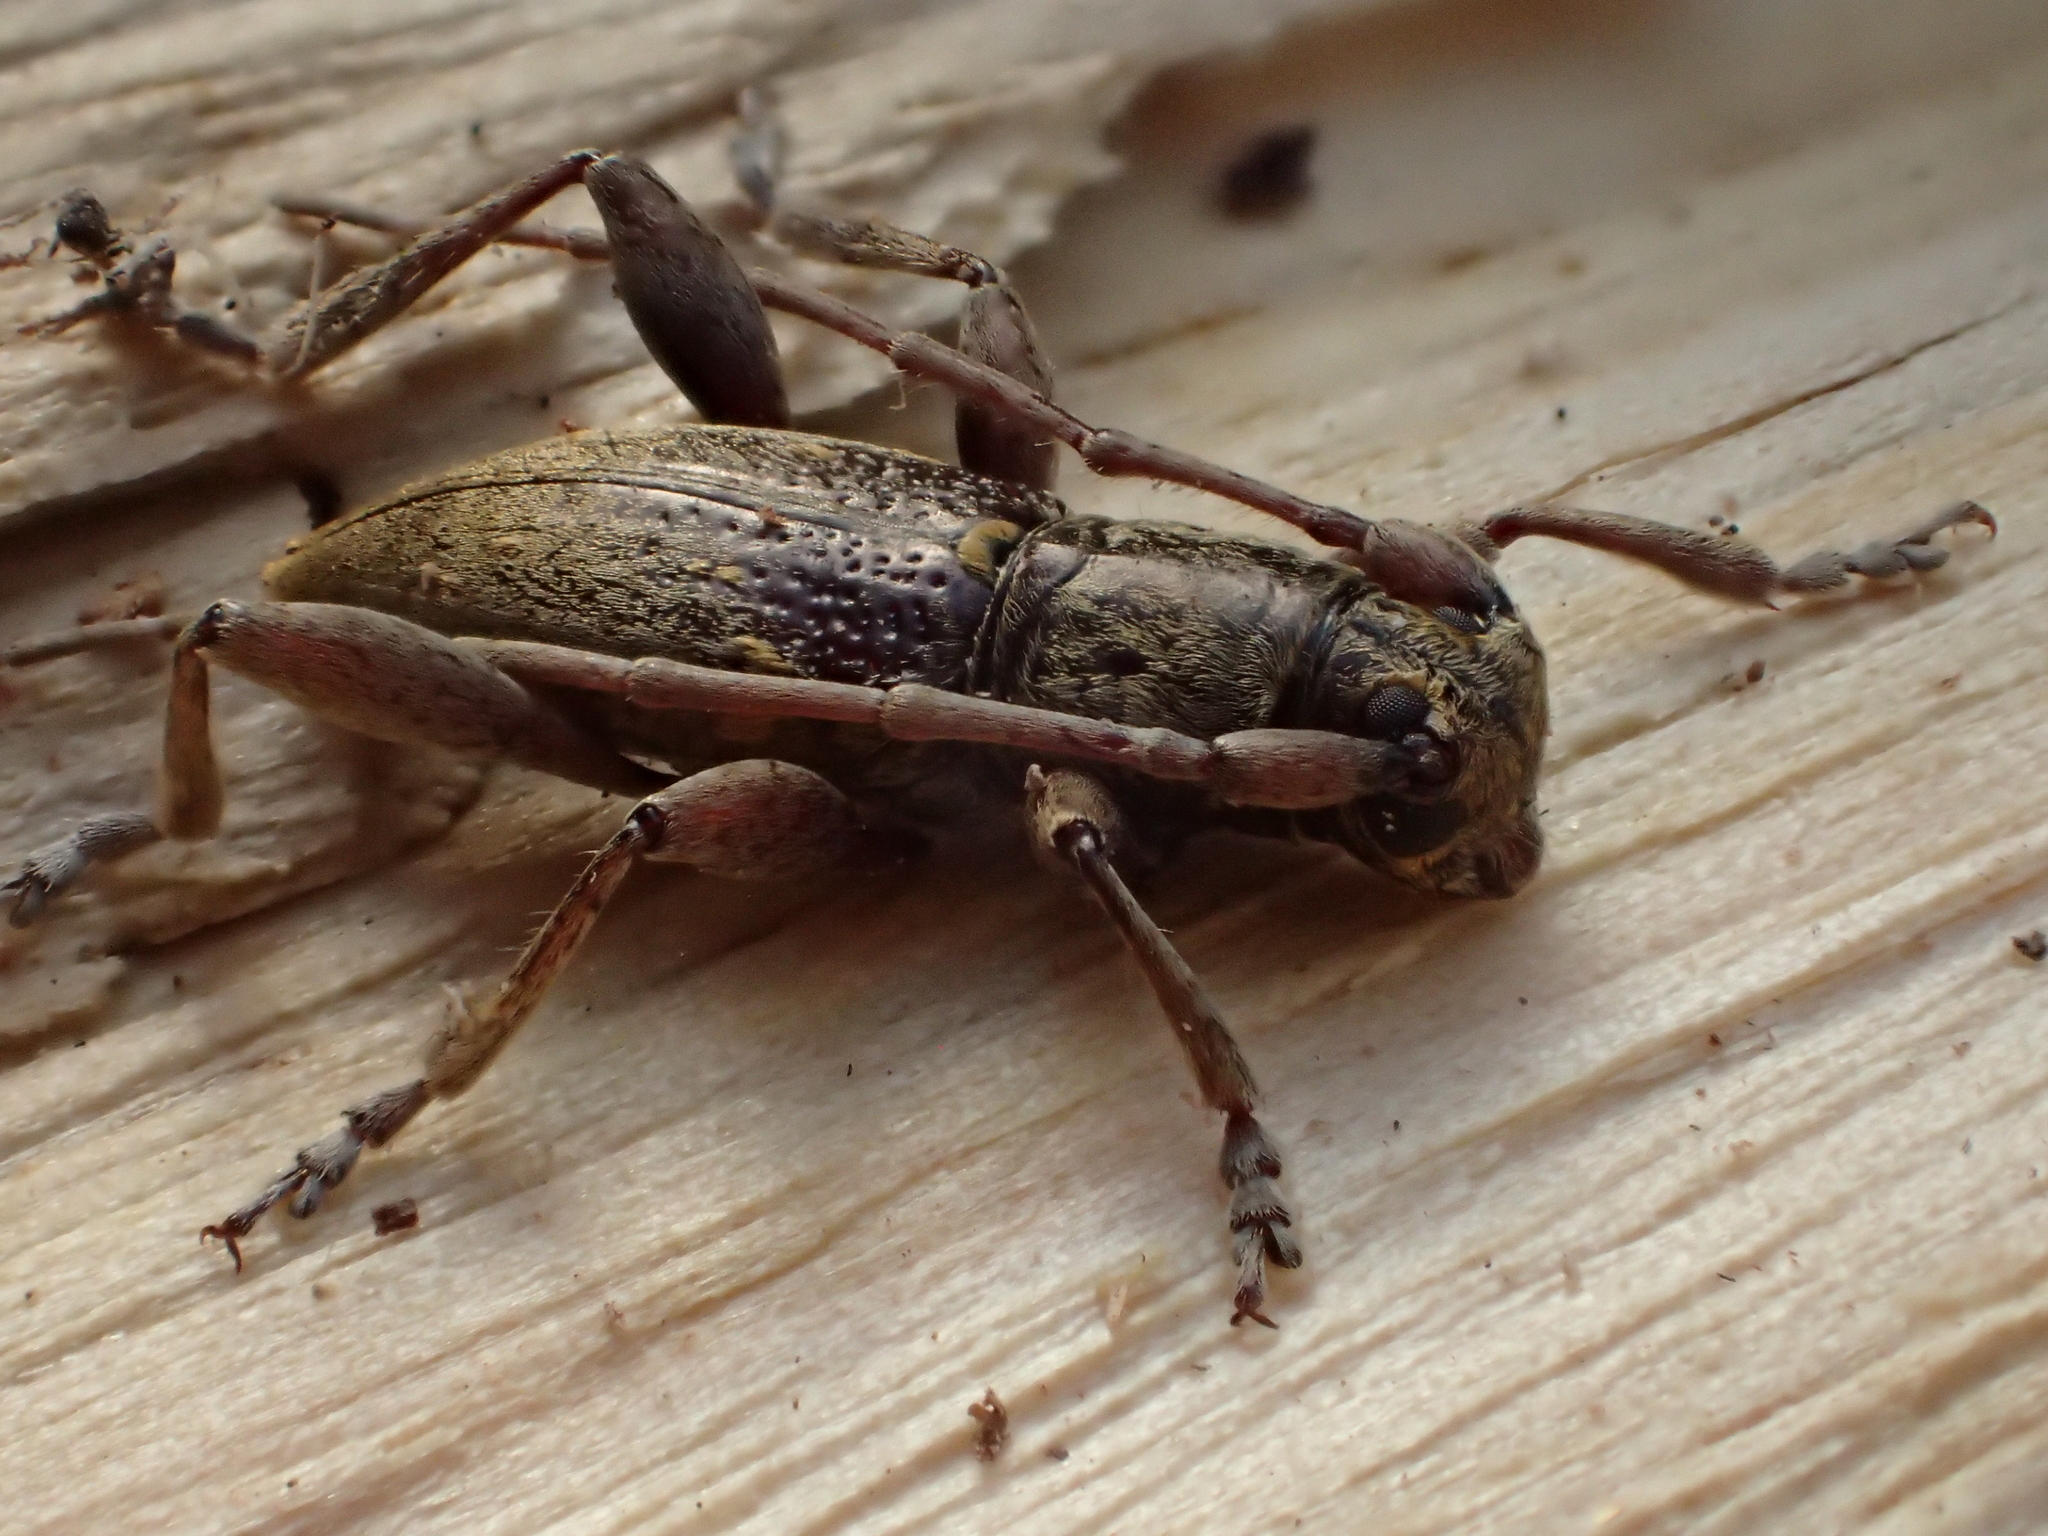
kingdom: Animalia
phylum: Arthropoda
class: Insecta
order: Coleoptera
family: Cerambycidae
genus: Xylotoles
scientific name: Xylotoles griseus
